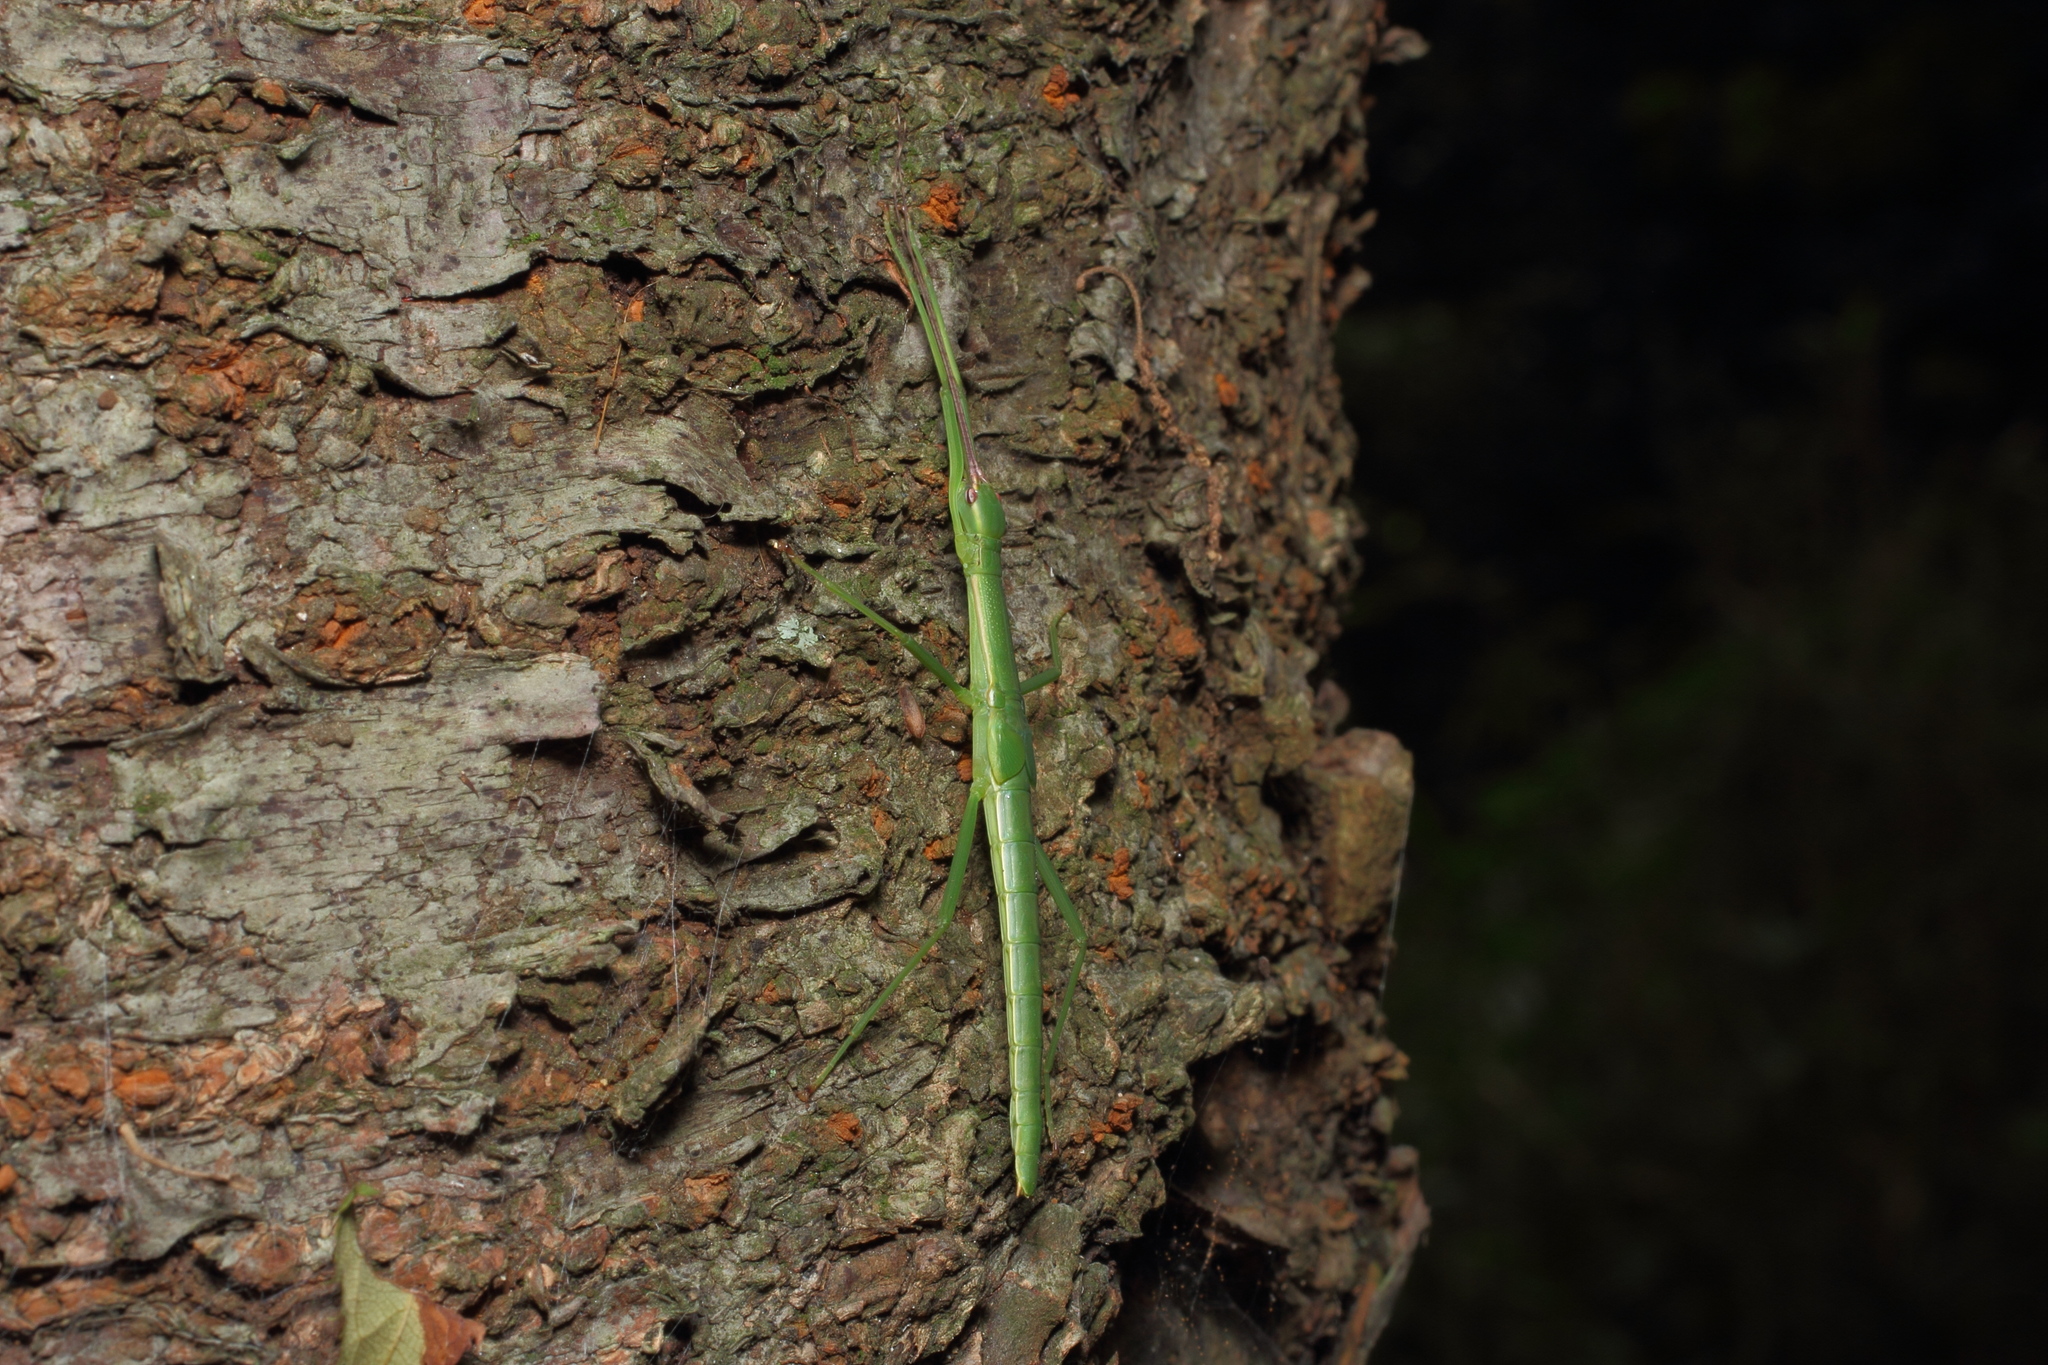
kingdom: Animalia
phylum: Arthropoda
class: Insecta
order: Phasmida
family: Lonchodidae
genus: Micadina
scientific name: Micadina phluctainoides
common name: Japanese winged stick-insect
